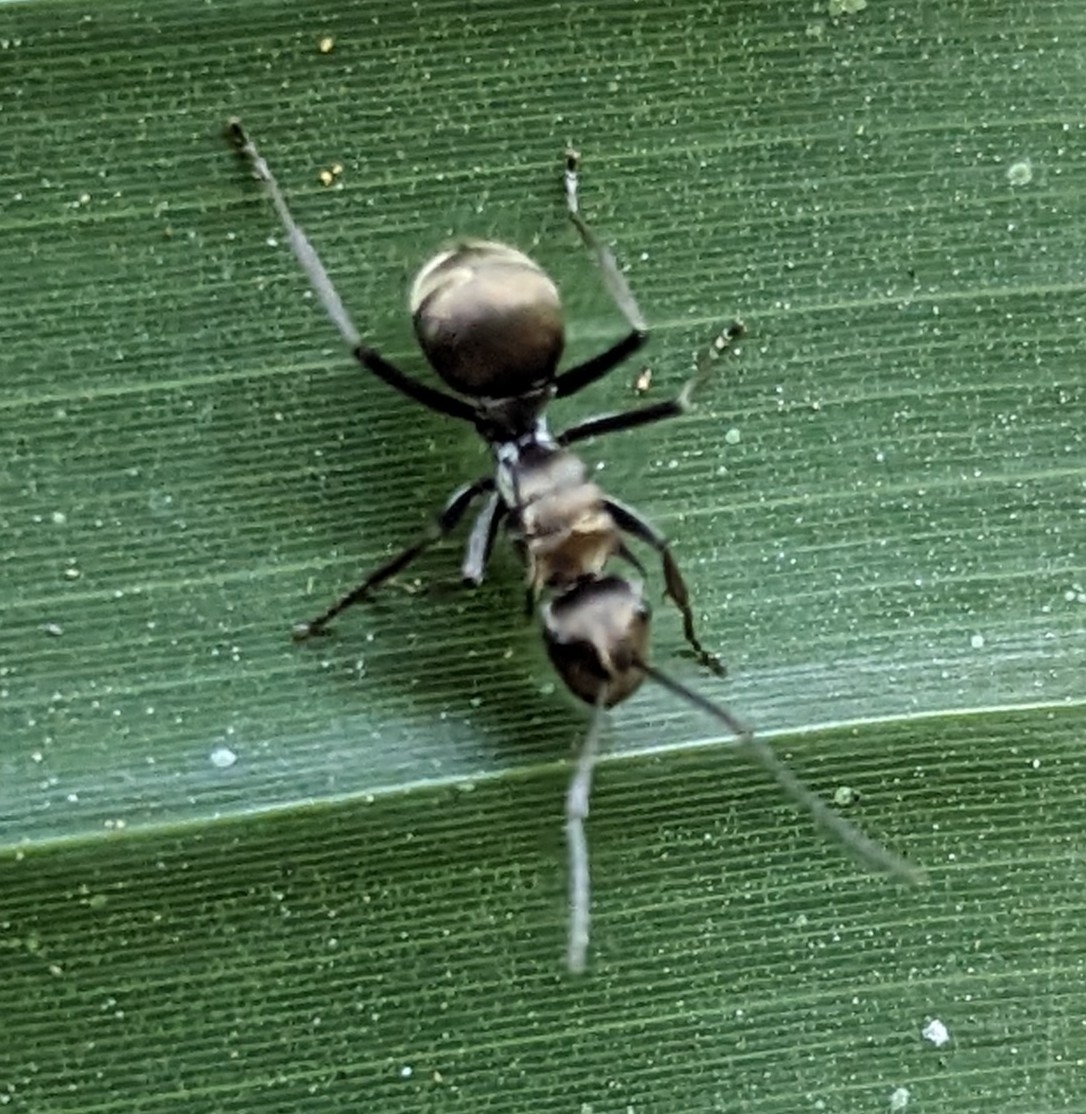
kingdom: Animalia
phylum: Arthropoda
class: Insecta
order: Hymenoptera
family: Formicidae
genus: Polyrhachis
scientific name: Polyrhachis foreli
